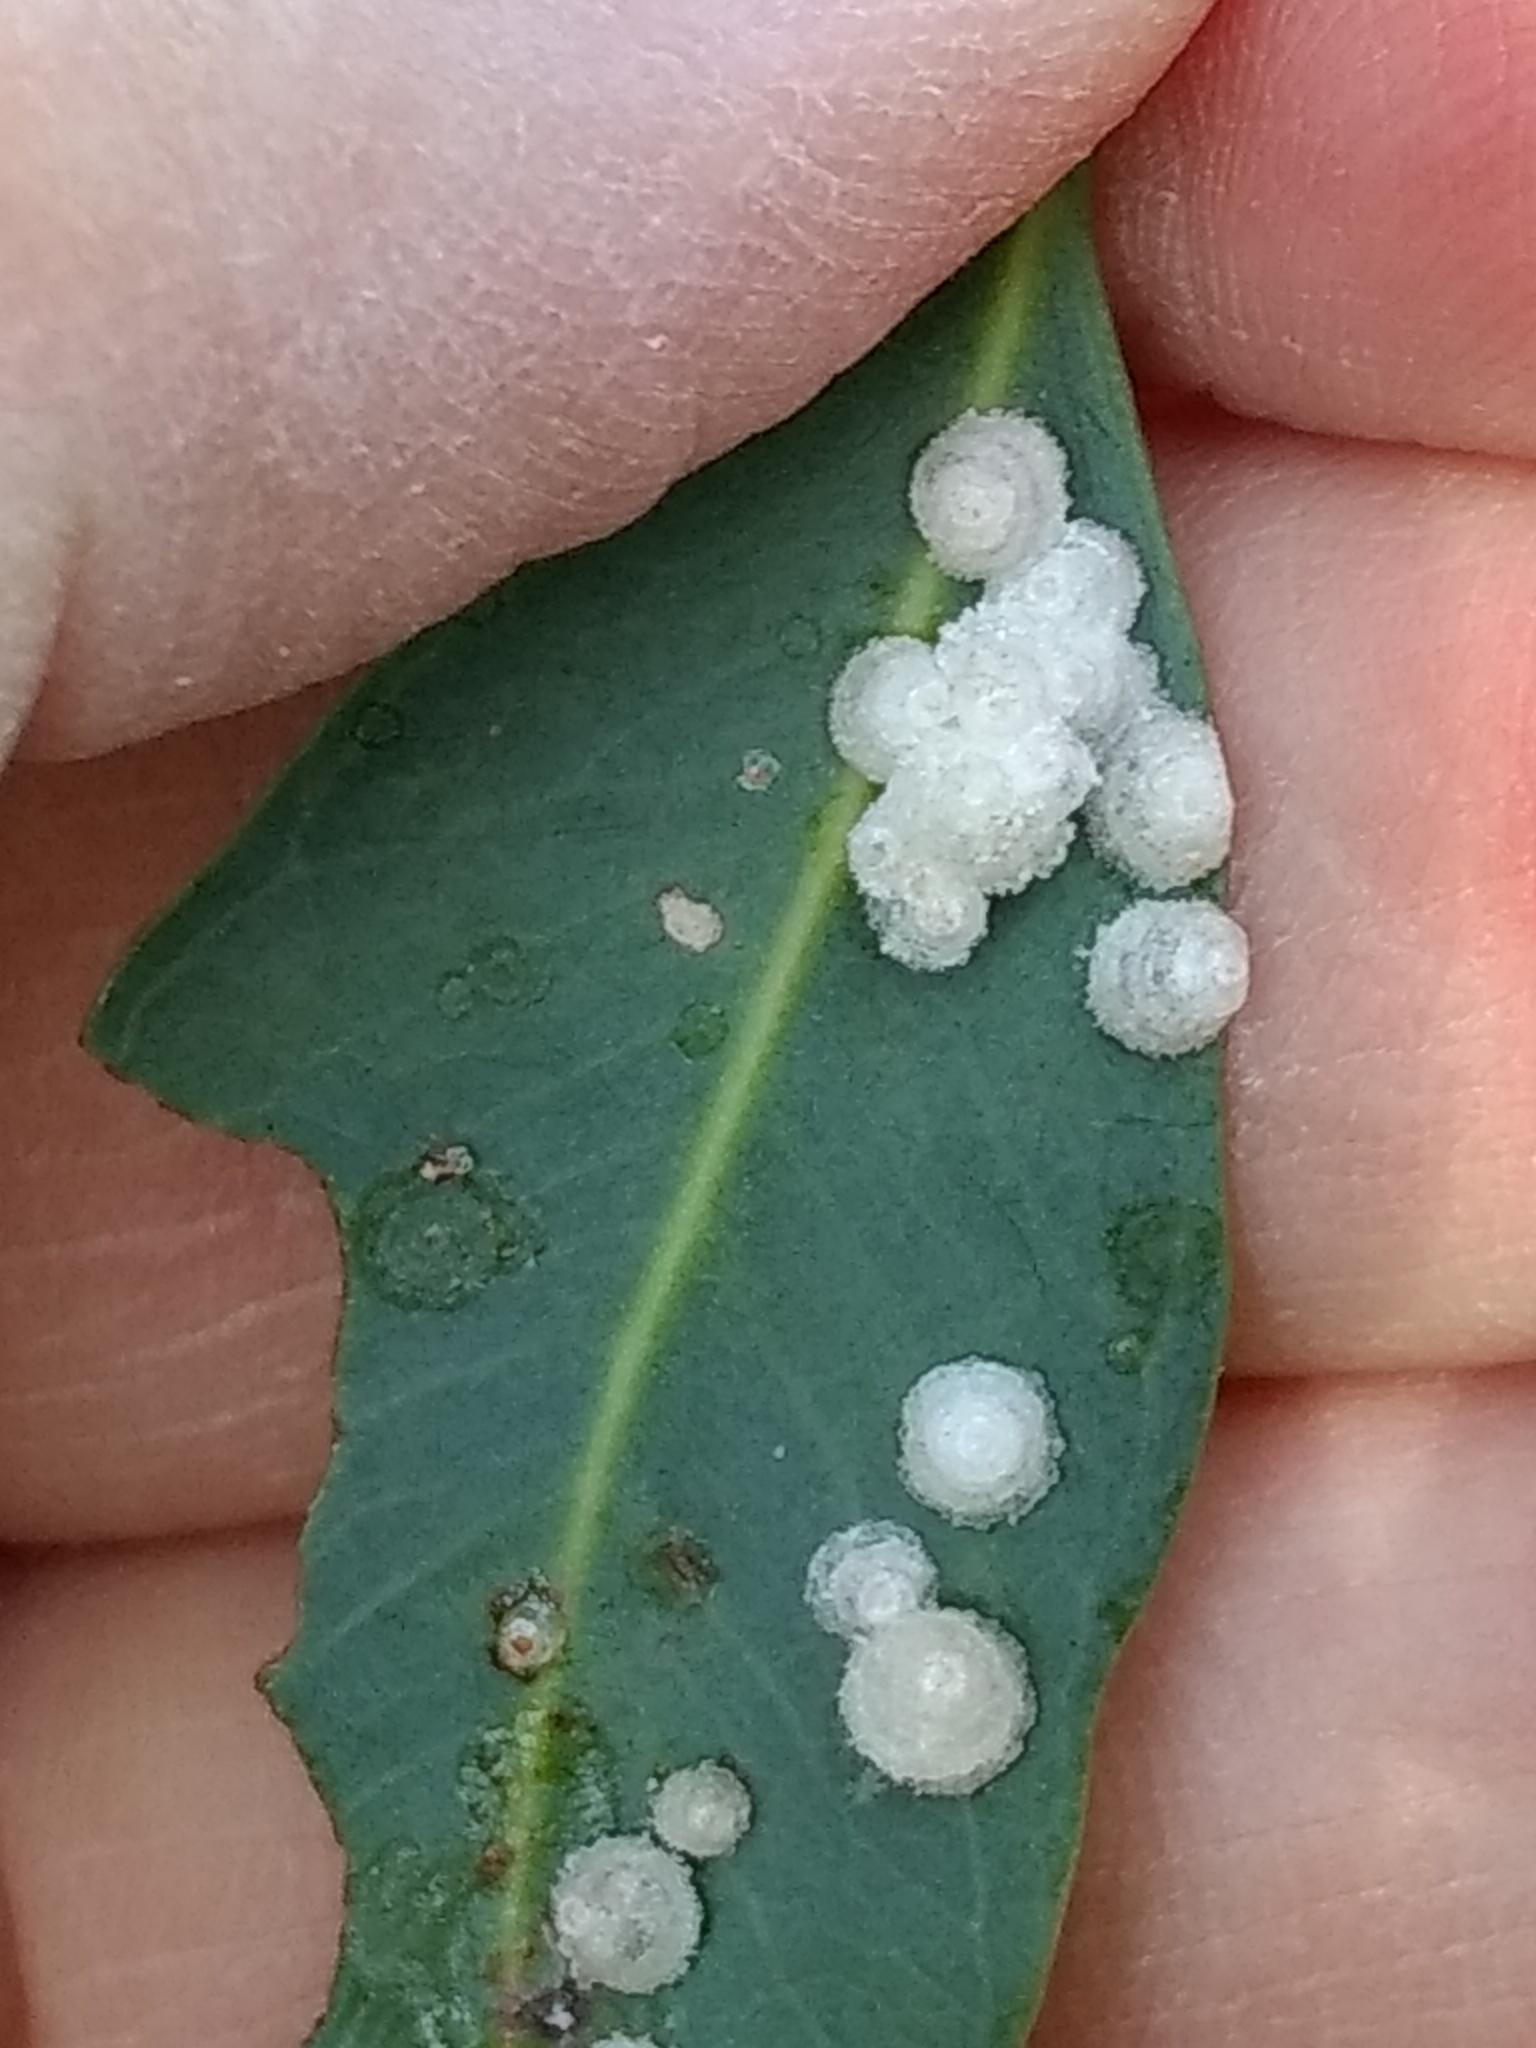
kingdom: Animalia
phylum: Arthropoda
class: Insecta
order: Hemiptera
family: Aphalaridae
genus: Glycaspis
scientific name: Glycaspis brimblecombei
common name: Red gum lerp psyllid
